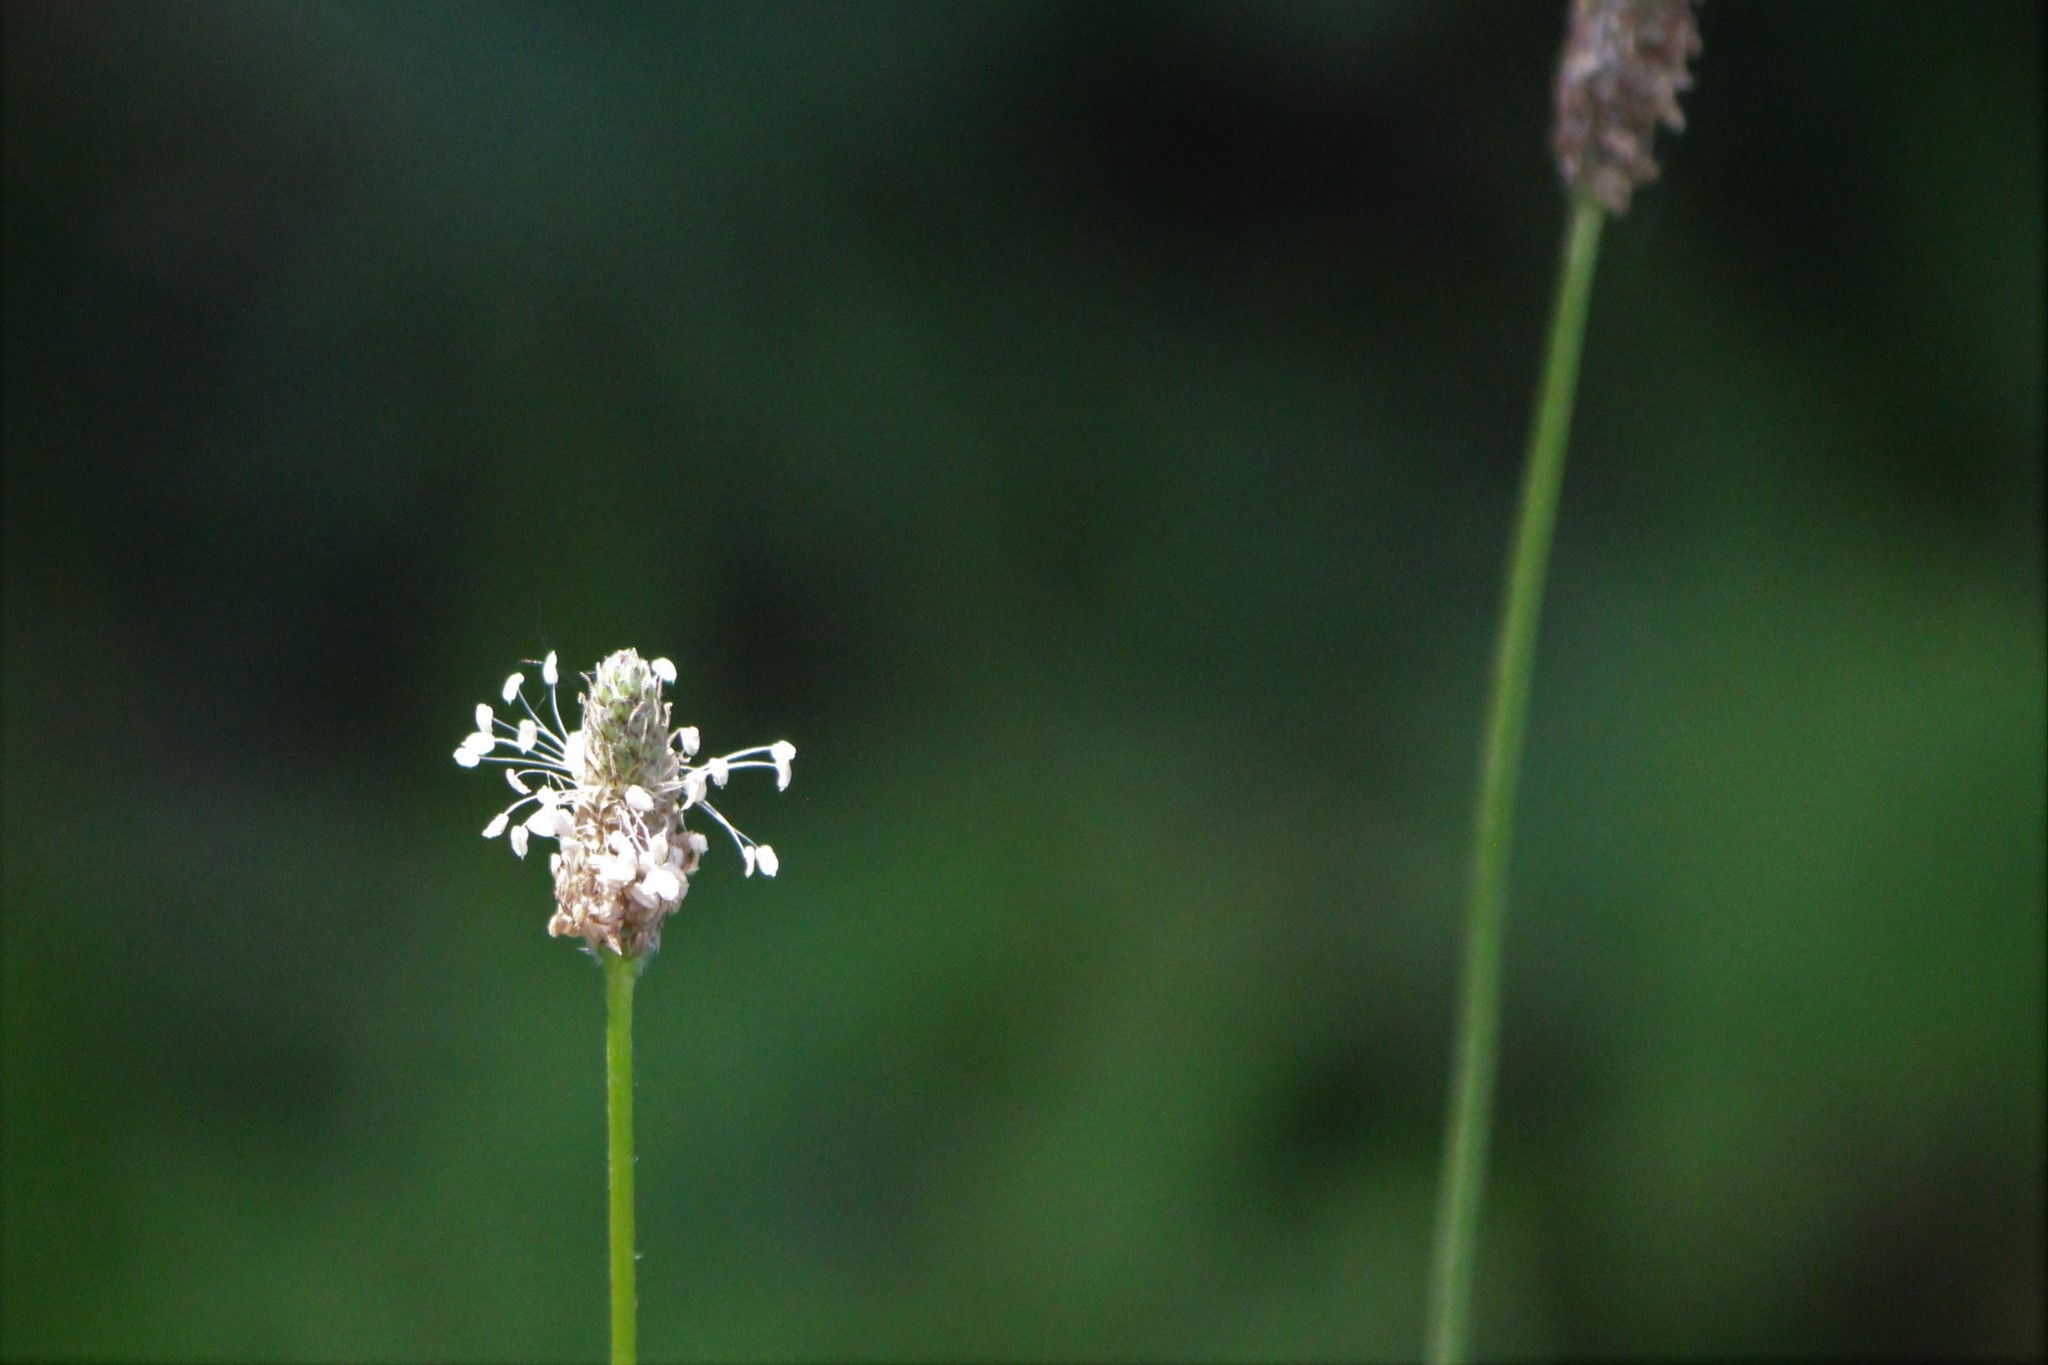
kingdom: Plantae
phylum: Tracheophyta
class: Magnoliopsida
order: Lamiales
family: Plantaginaceae
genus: Plantago
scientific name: Plantago lanceolata
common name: Ribwort plantain
